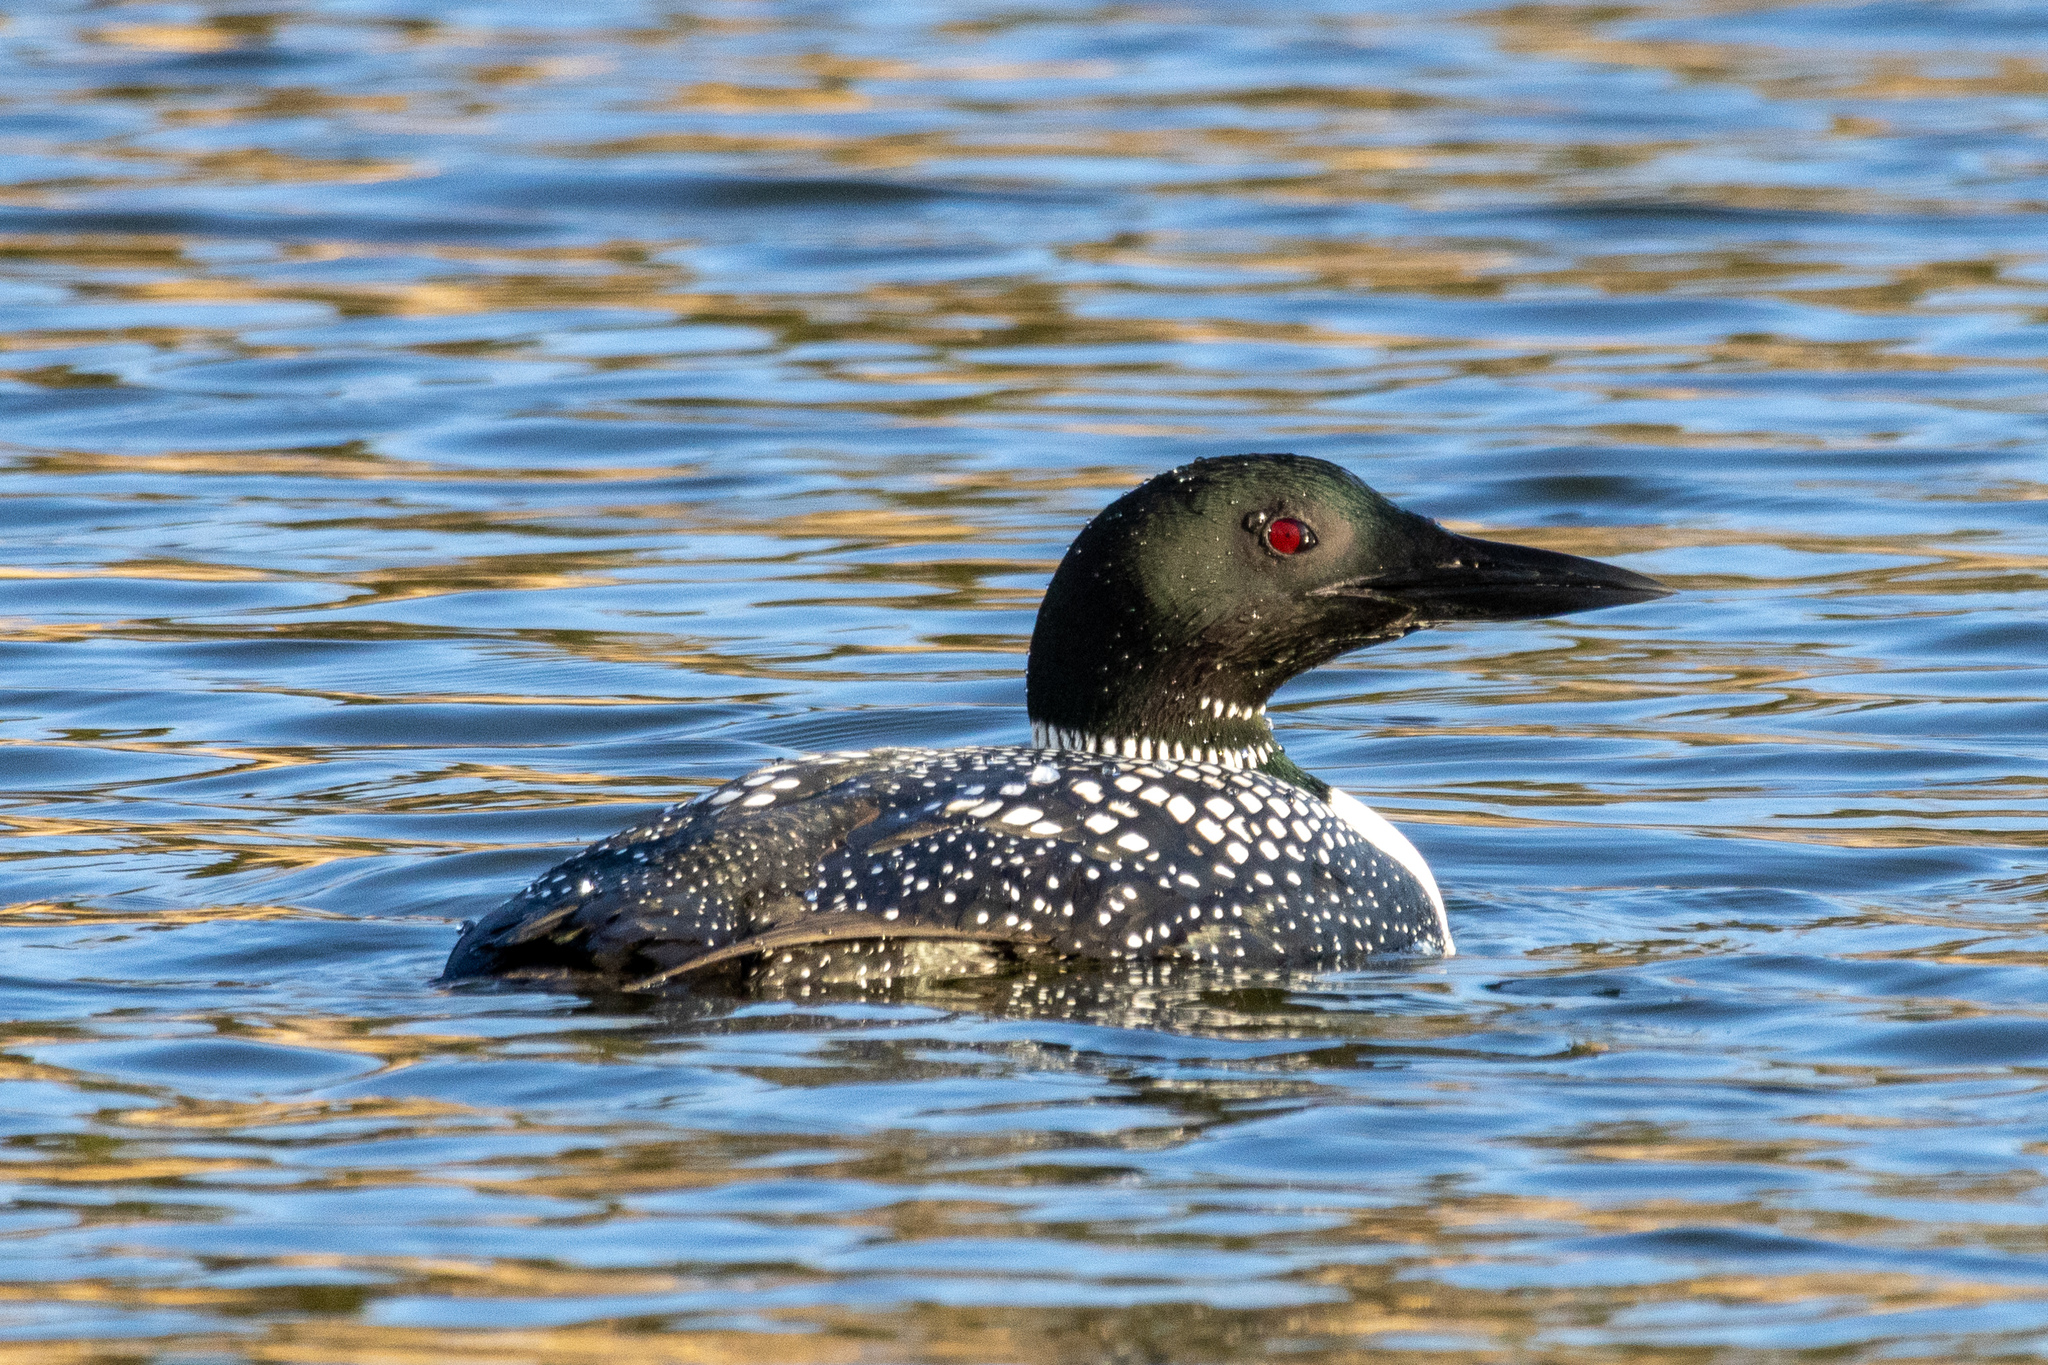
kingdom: Animalia
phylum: Chordata
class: Aves
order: Gaviiformes
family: Gaviidae
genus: Gavia
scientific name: Gavia immer
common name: Common loon
